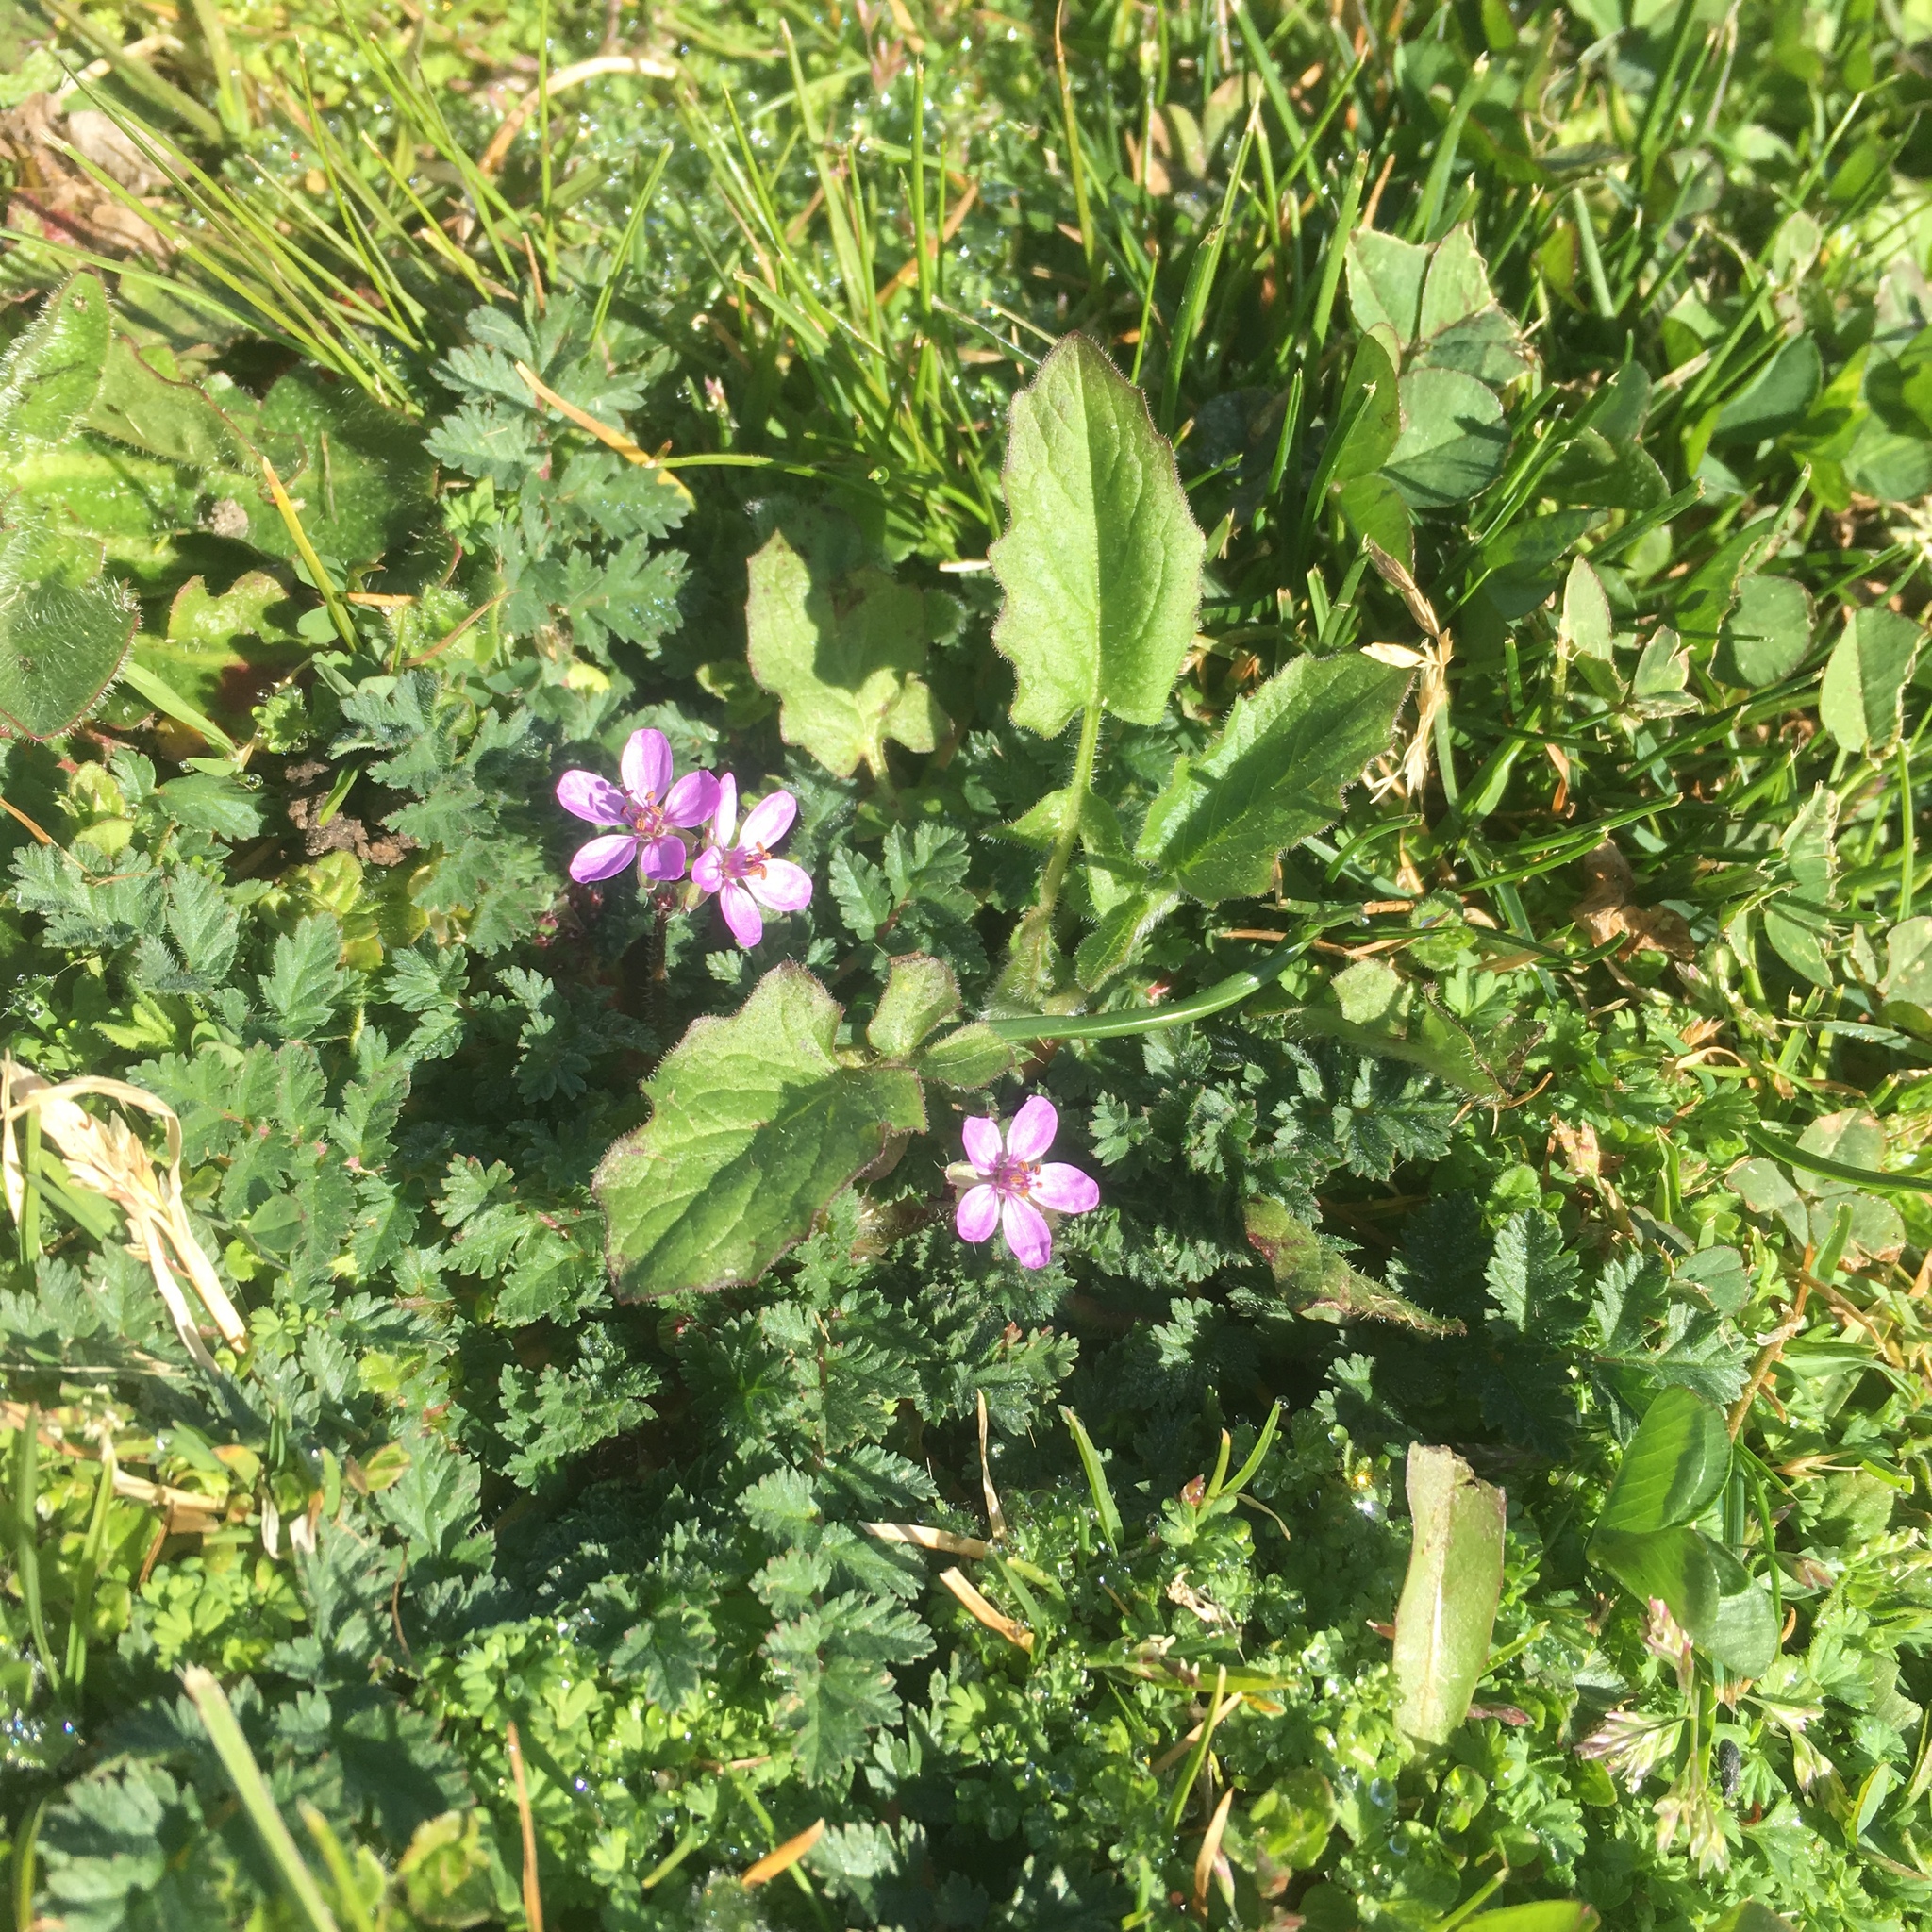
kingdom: Plantae
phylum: Tracheophyta
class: Magnoliopsida
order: Geraniales
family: Geraniaceae
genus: Erodium
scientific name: Erodium cicutarium
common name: Common stork's-bill
